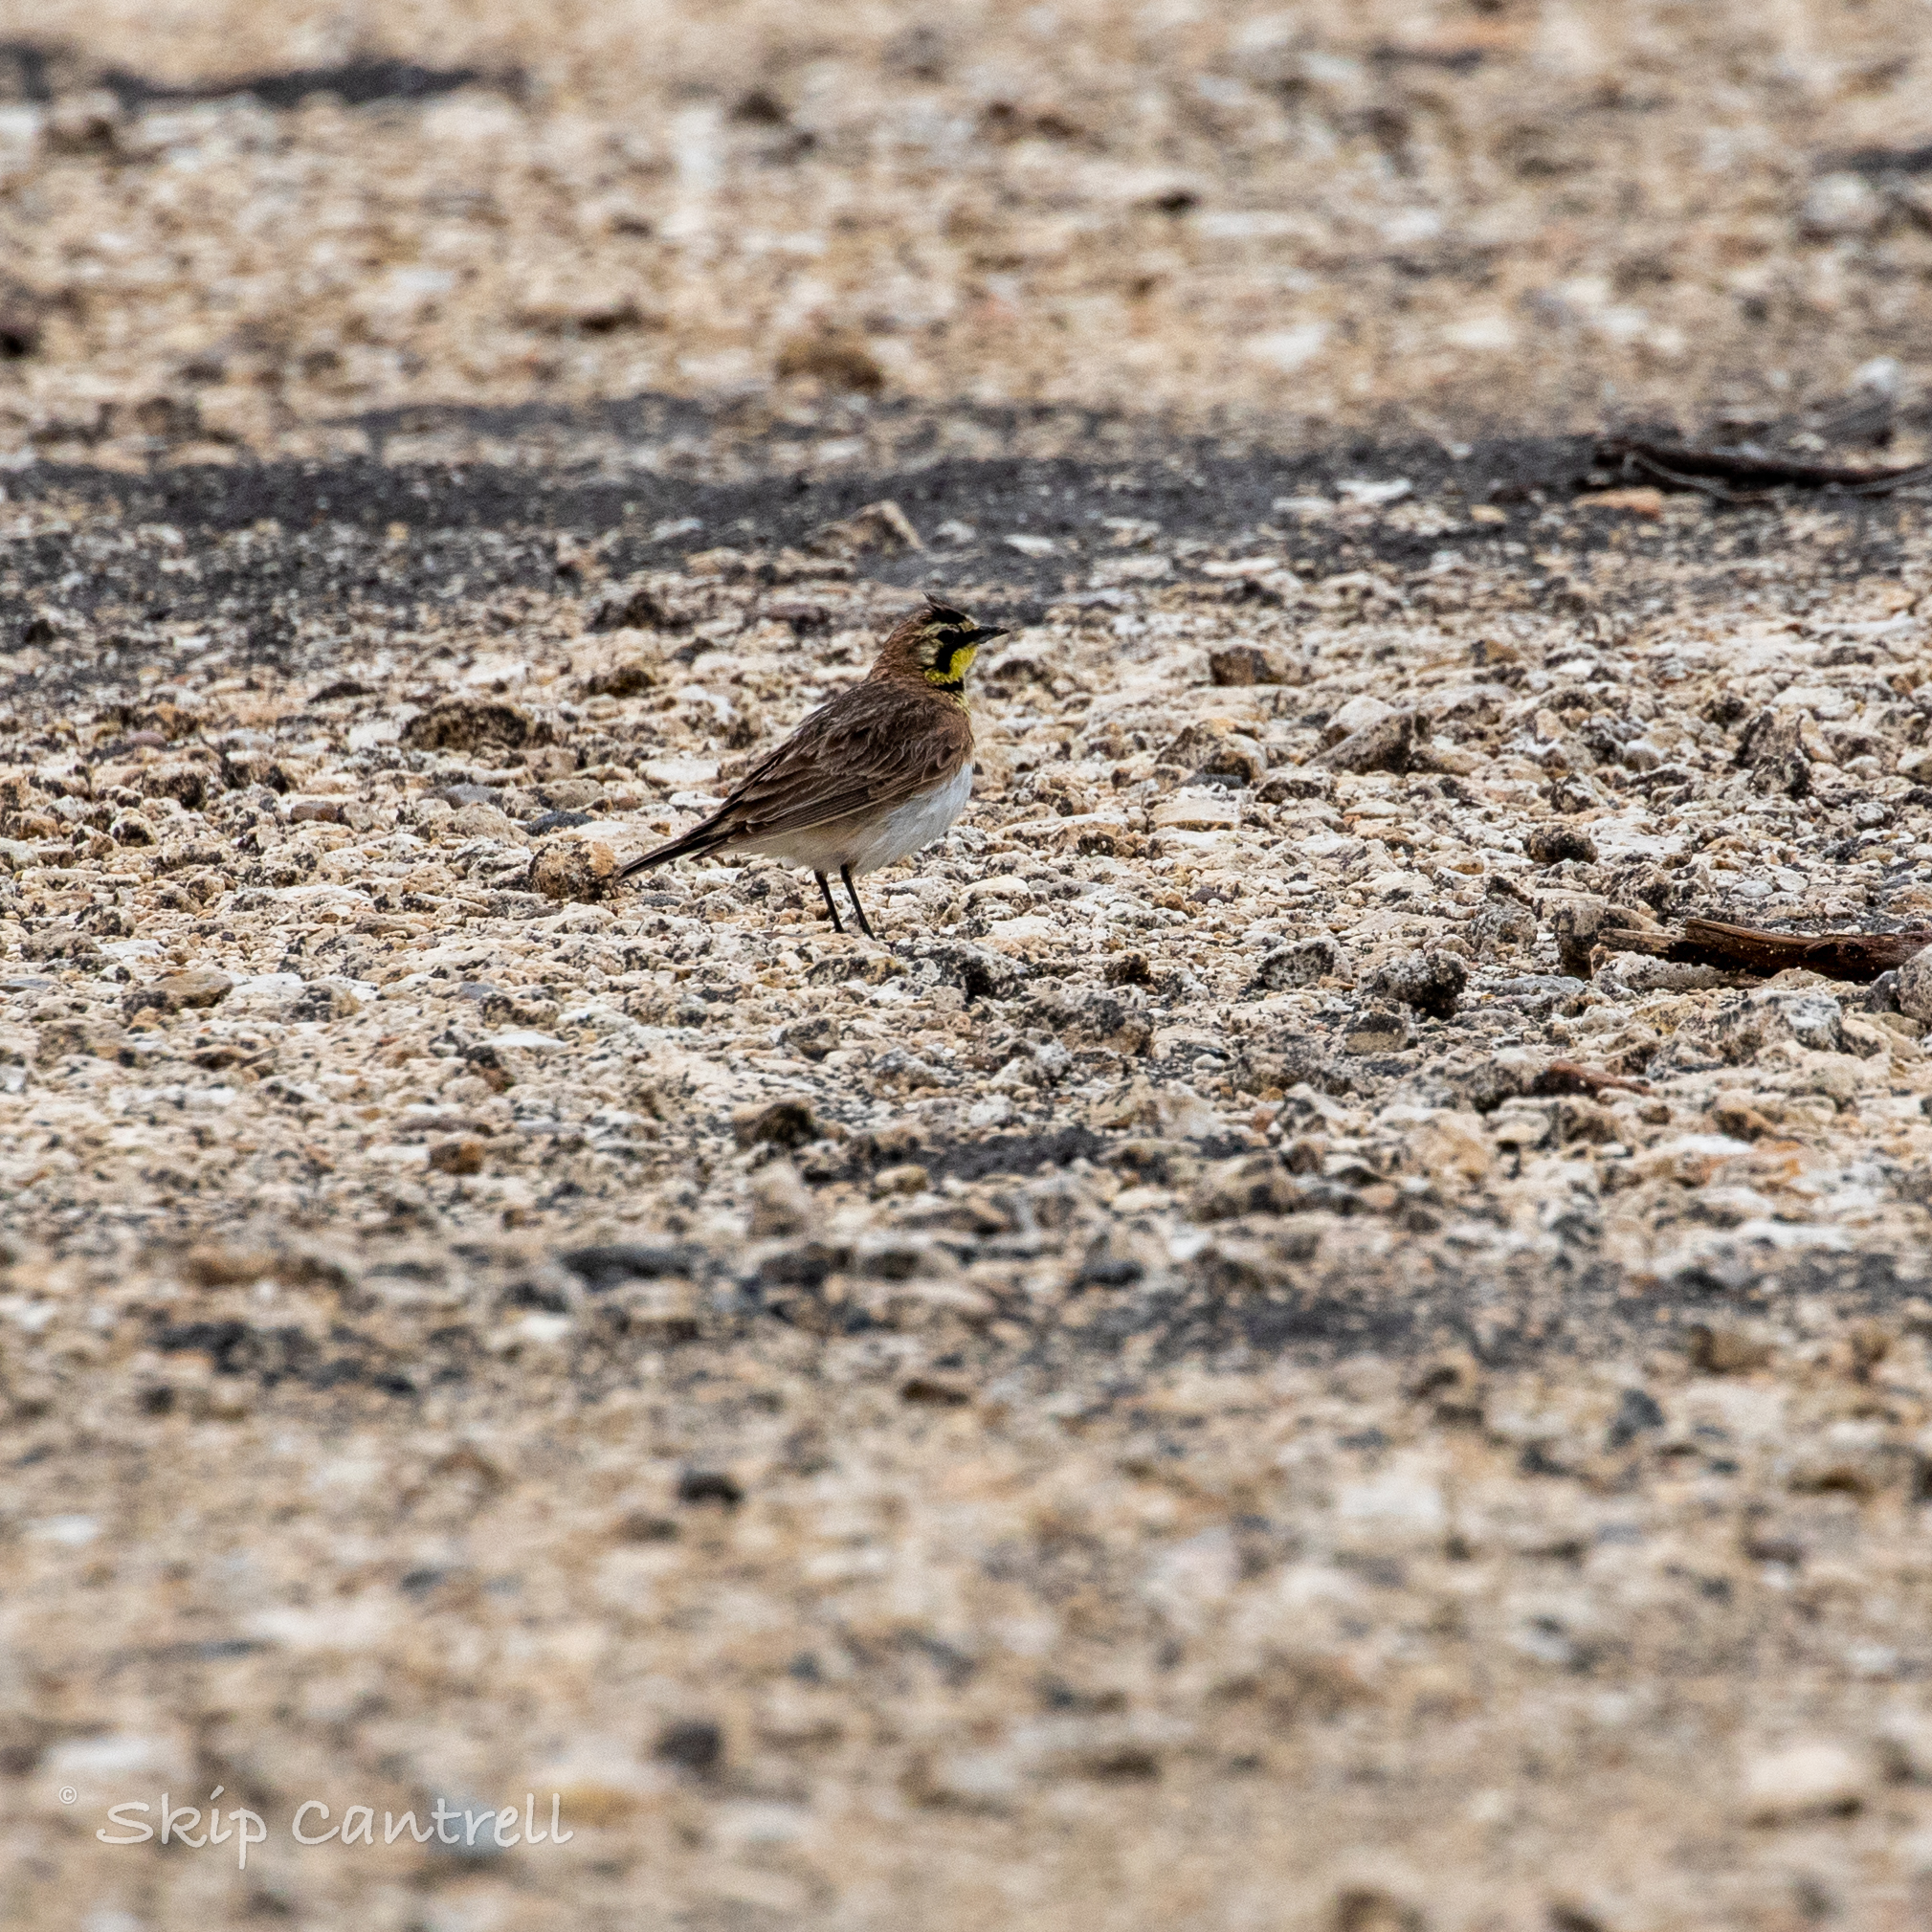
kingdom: Animalia
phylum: Chordata
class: Aves
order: Passeriformes
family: Alaudidae
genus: Eremophila
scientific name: Eremophila alpestris
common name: Horned lark
